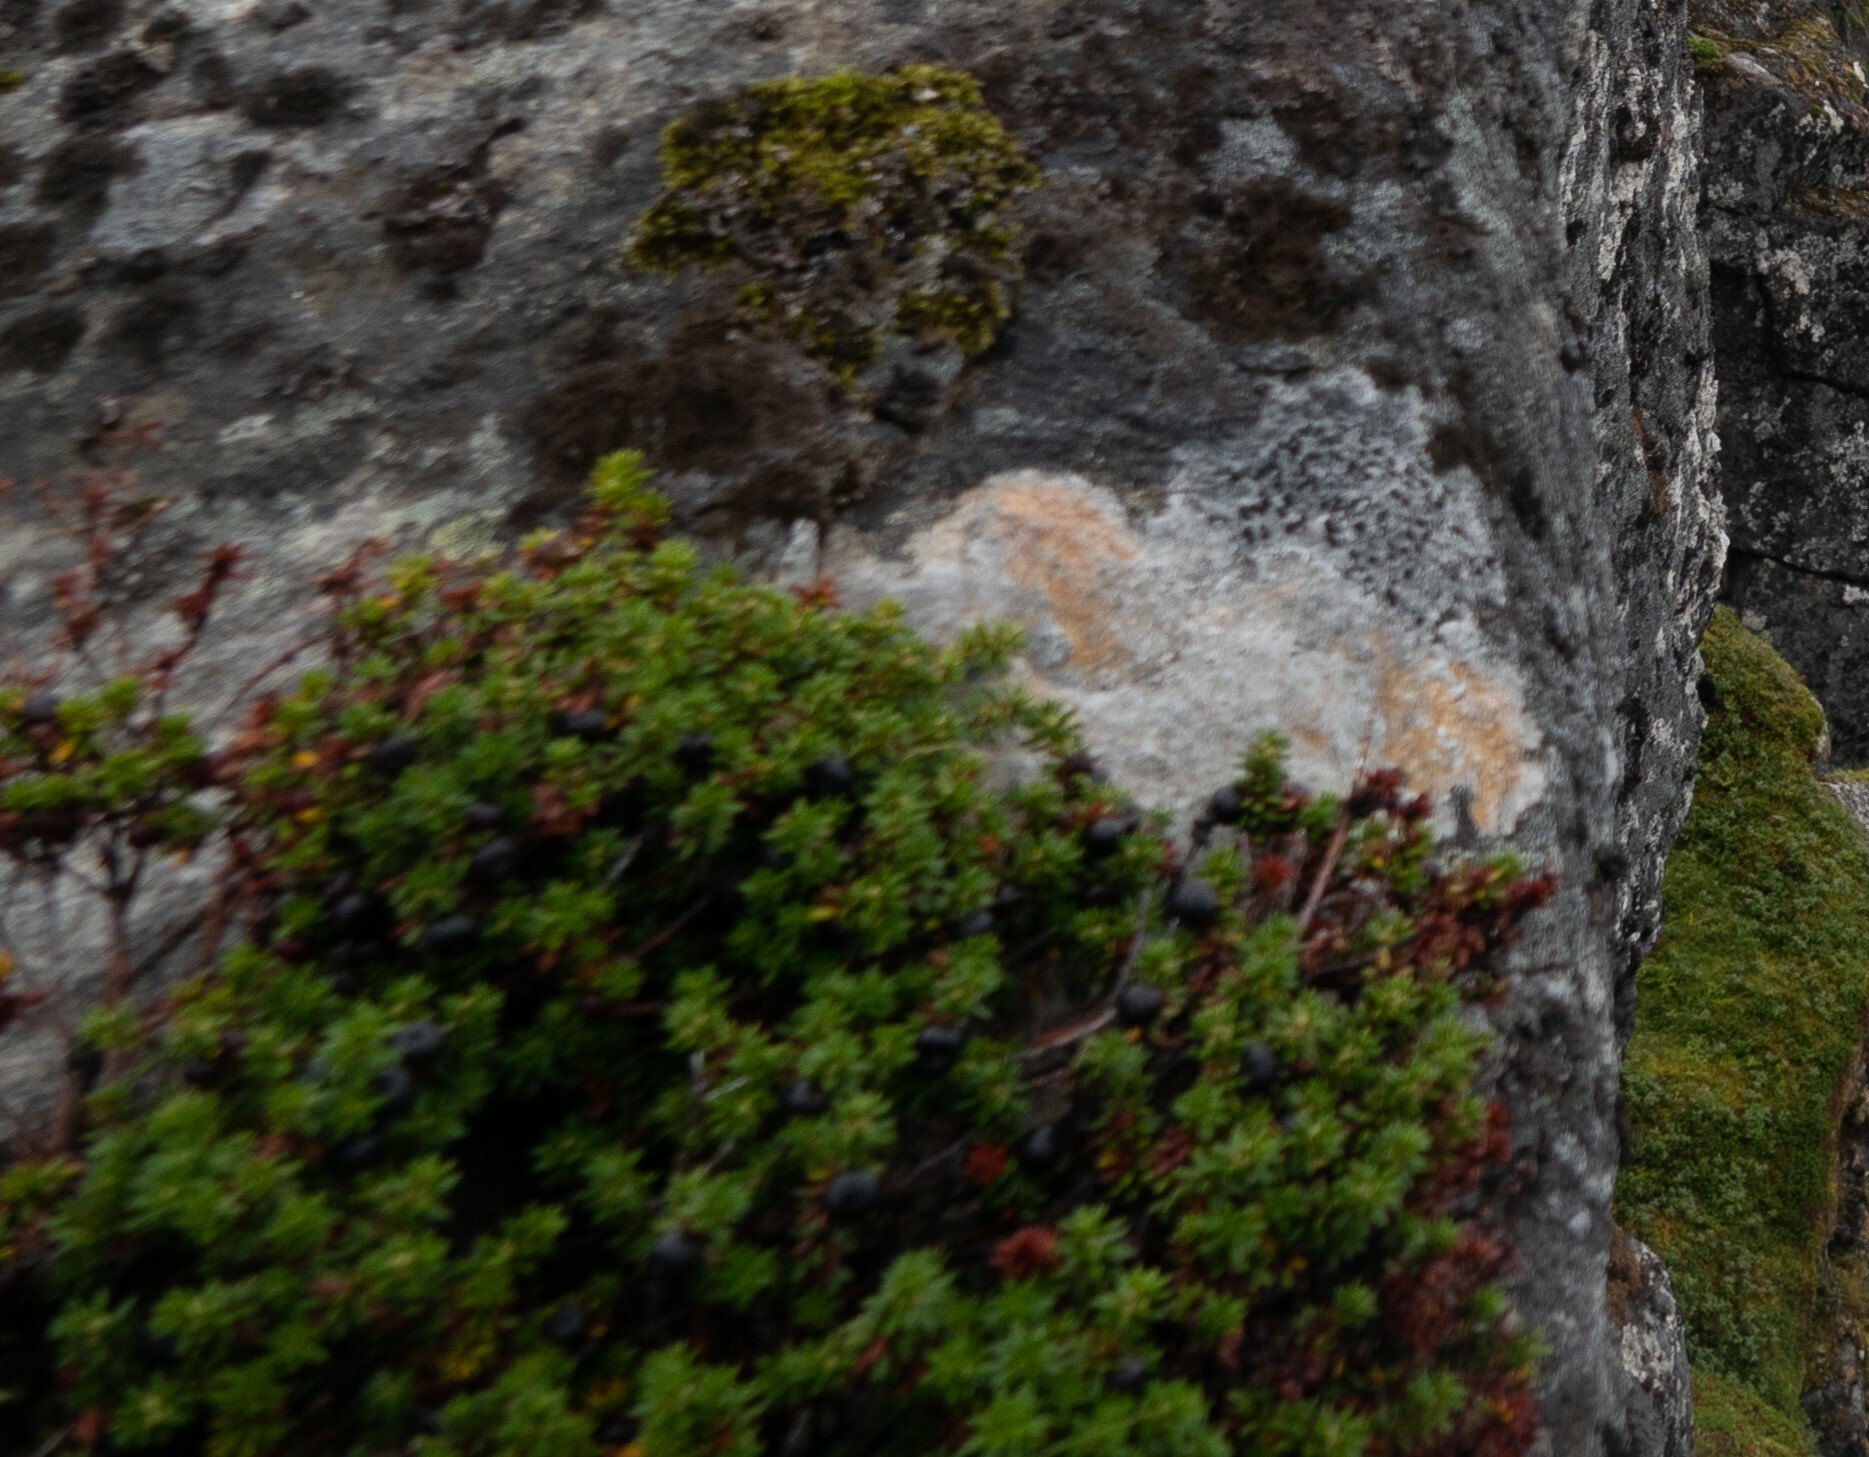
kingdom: Plantae
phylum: Tracheophyta
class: Magnoliopsida
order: Ericales
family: Ericaceae
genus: Empetrum
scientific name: Empetrum nigrum
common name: Black crowberry
